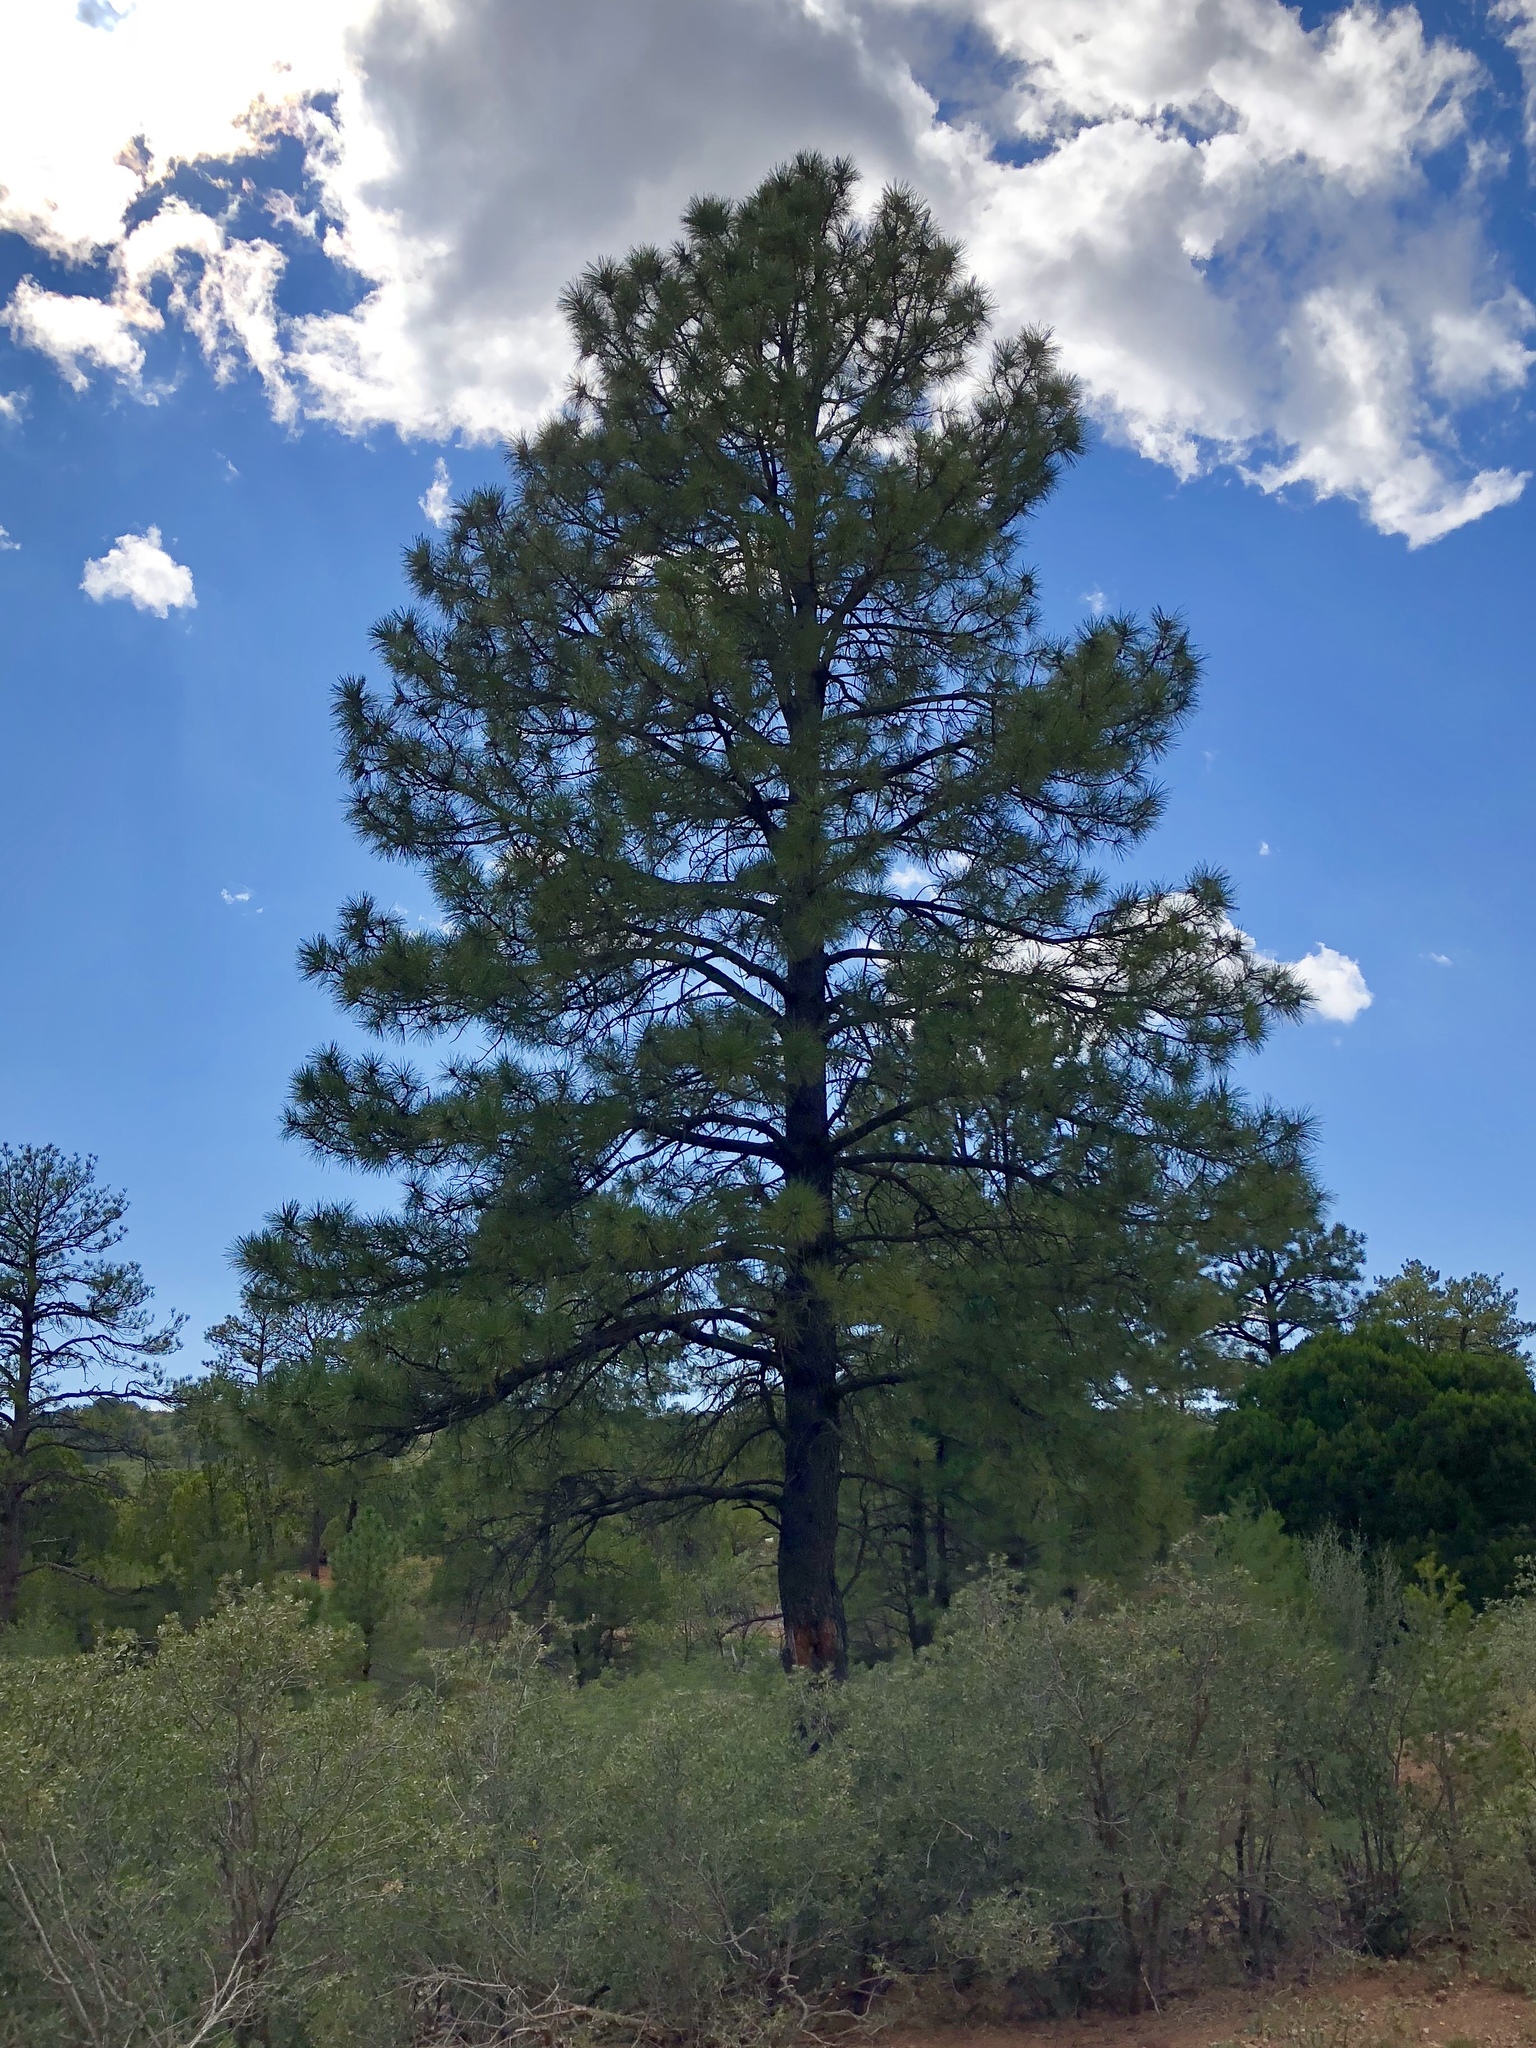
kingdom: Plantae
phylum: Tracheophyta
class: Pinopsida
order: Pinales
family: Pinaceae
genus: Pinus
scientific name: Pinus ponderosa
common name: Western yellow-pine
